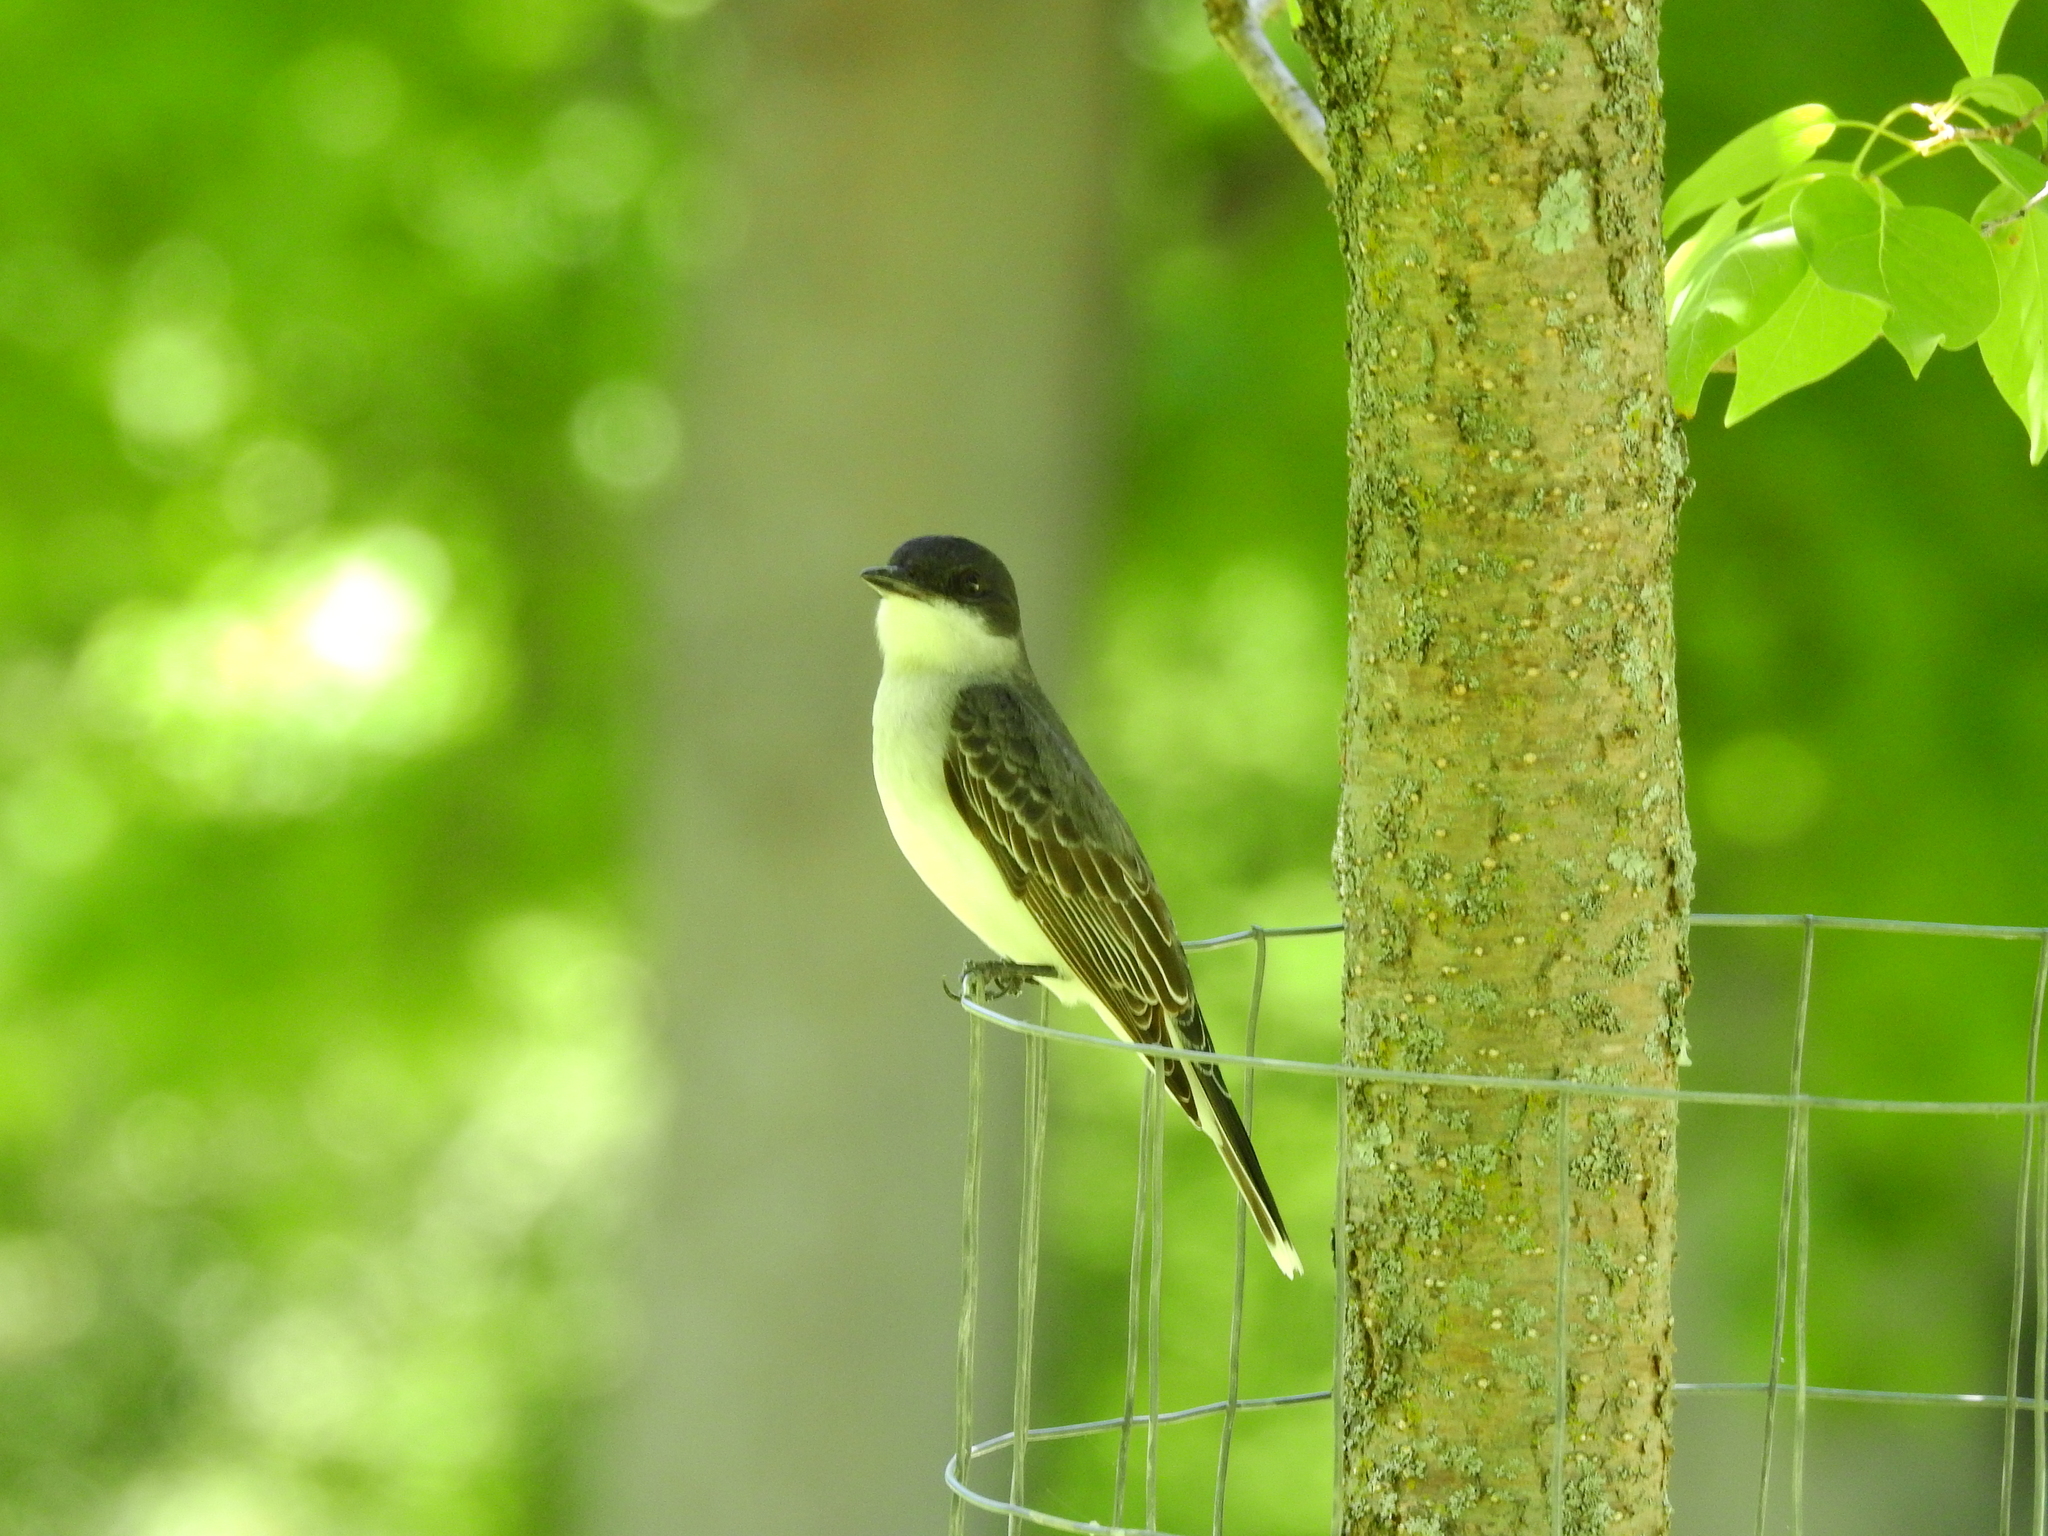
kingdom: Animalia
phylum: Chordata
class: Aves
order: Passeriformes
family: Tyrannidae
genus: Tyrannus
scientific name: Tyrannus tyrannus
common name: Eastern kingbird
